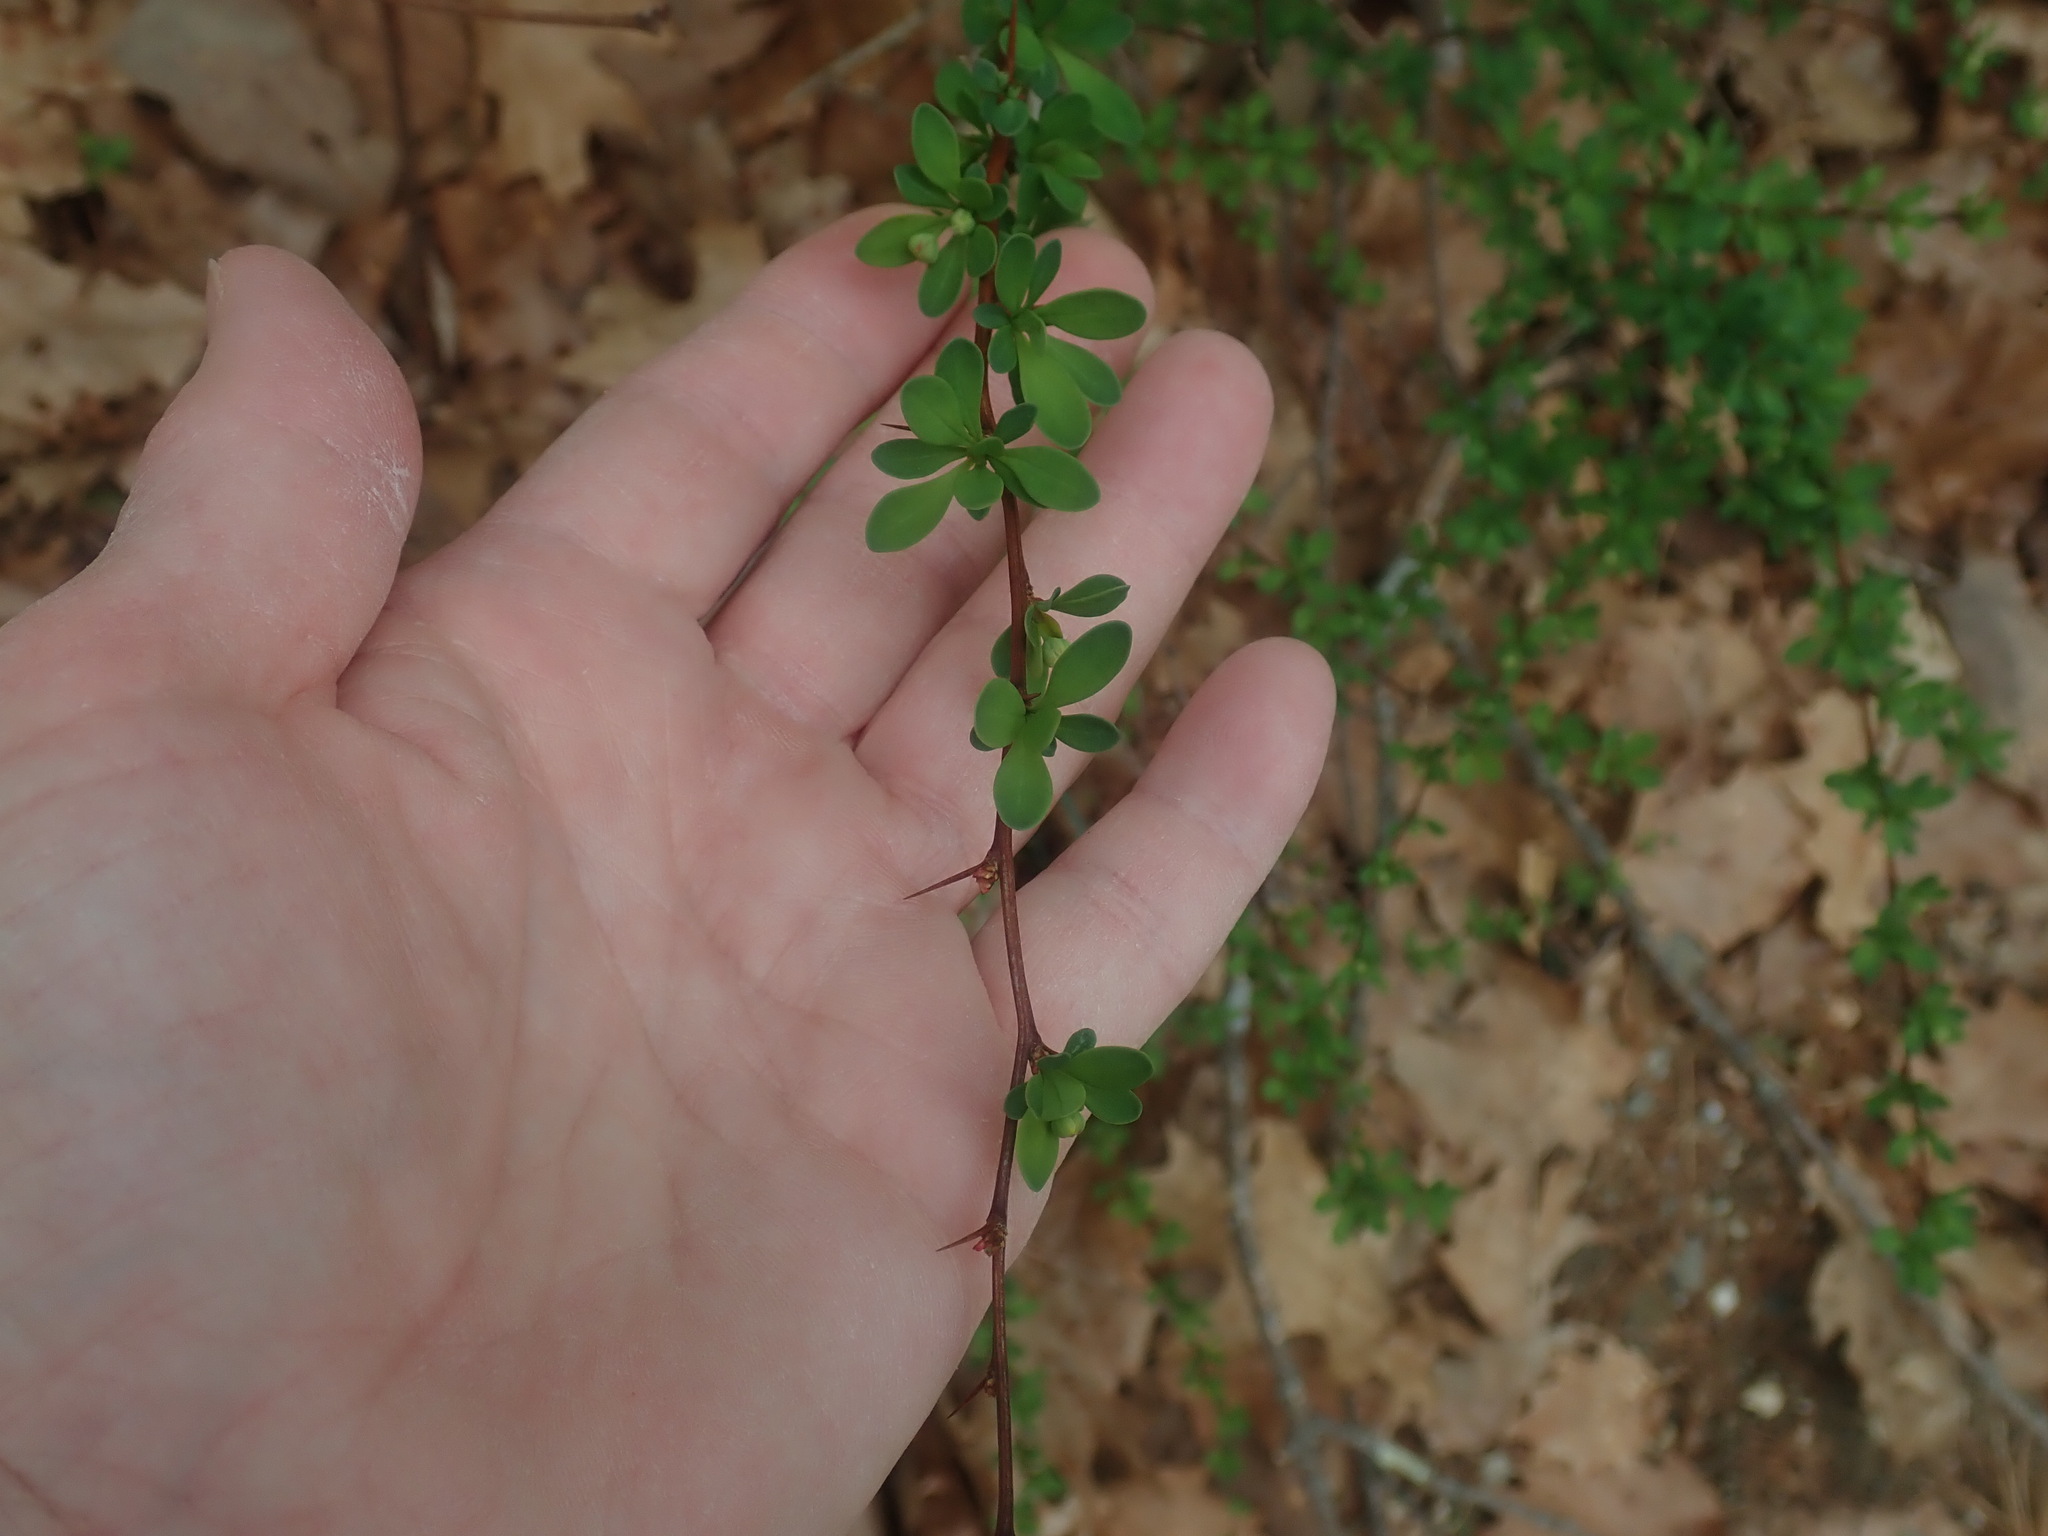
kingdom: Plantae
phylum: Tracheophyta
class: Magnoliopsida
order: Ranunculales
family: Berberidaceae
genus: Berberis
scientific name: Berberis thunbergii
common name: Japanese barberry
